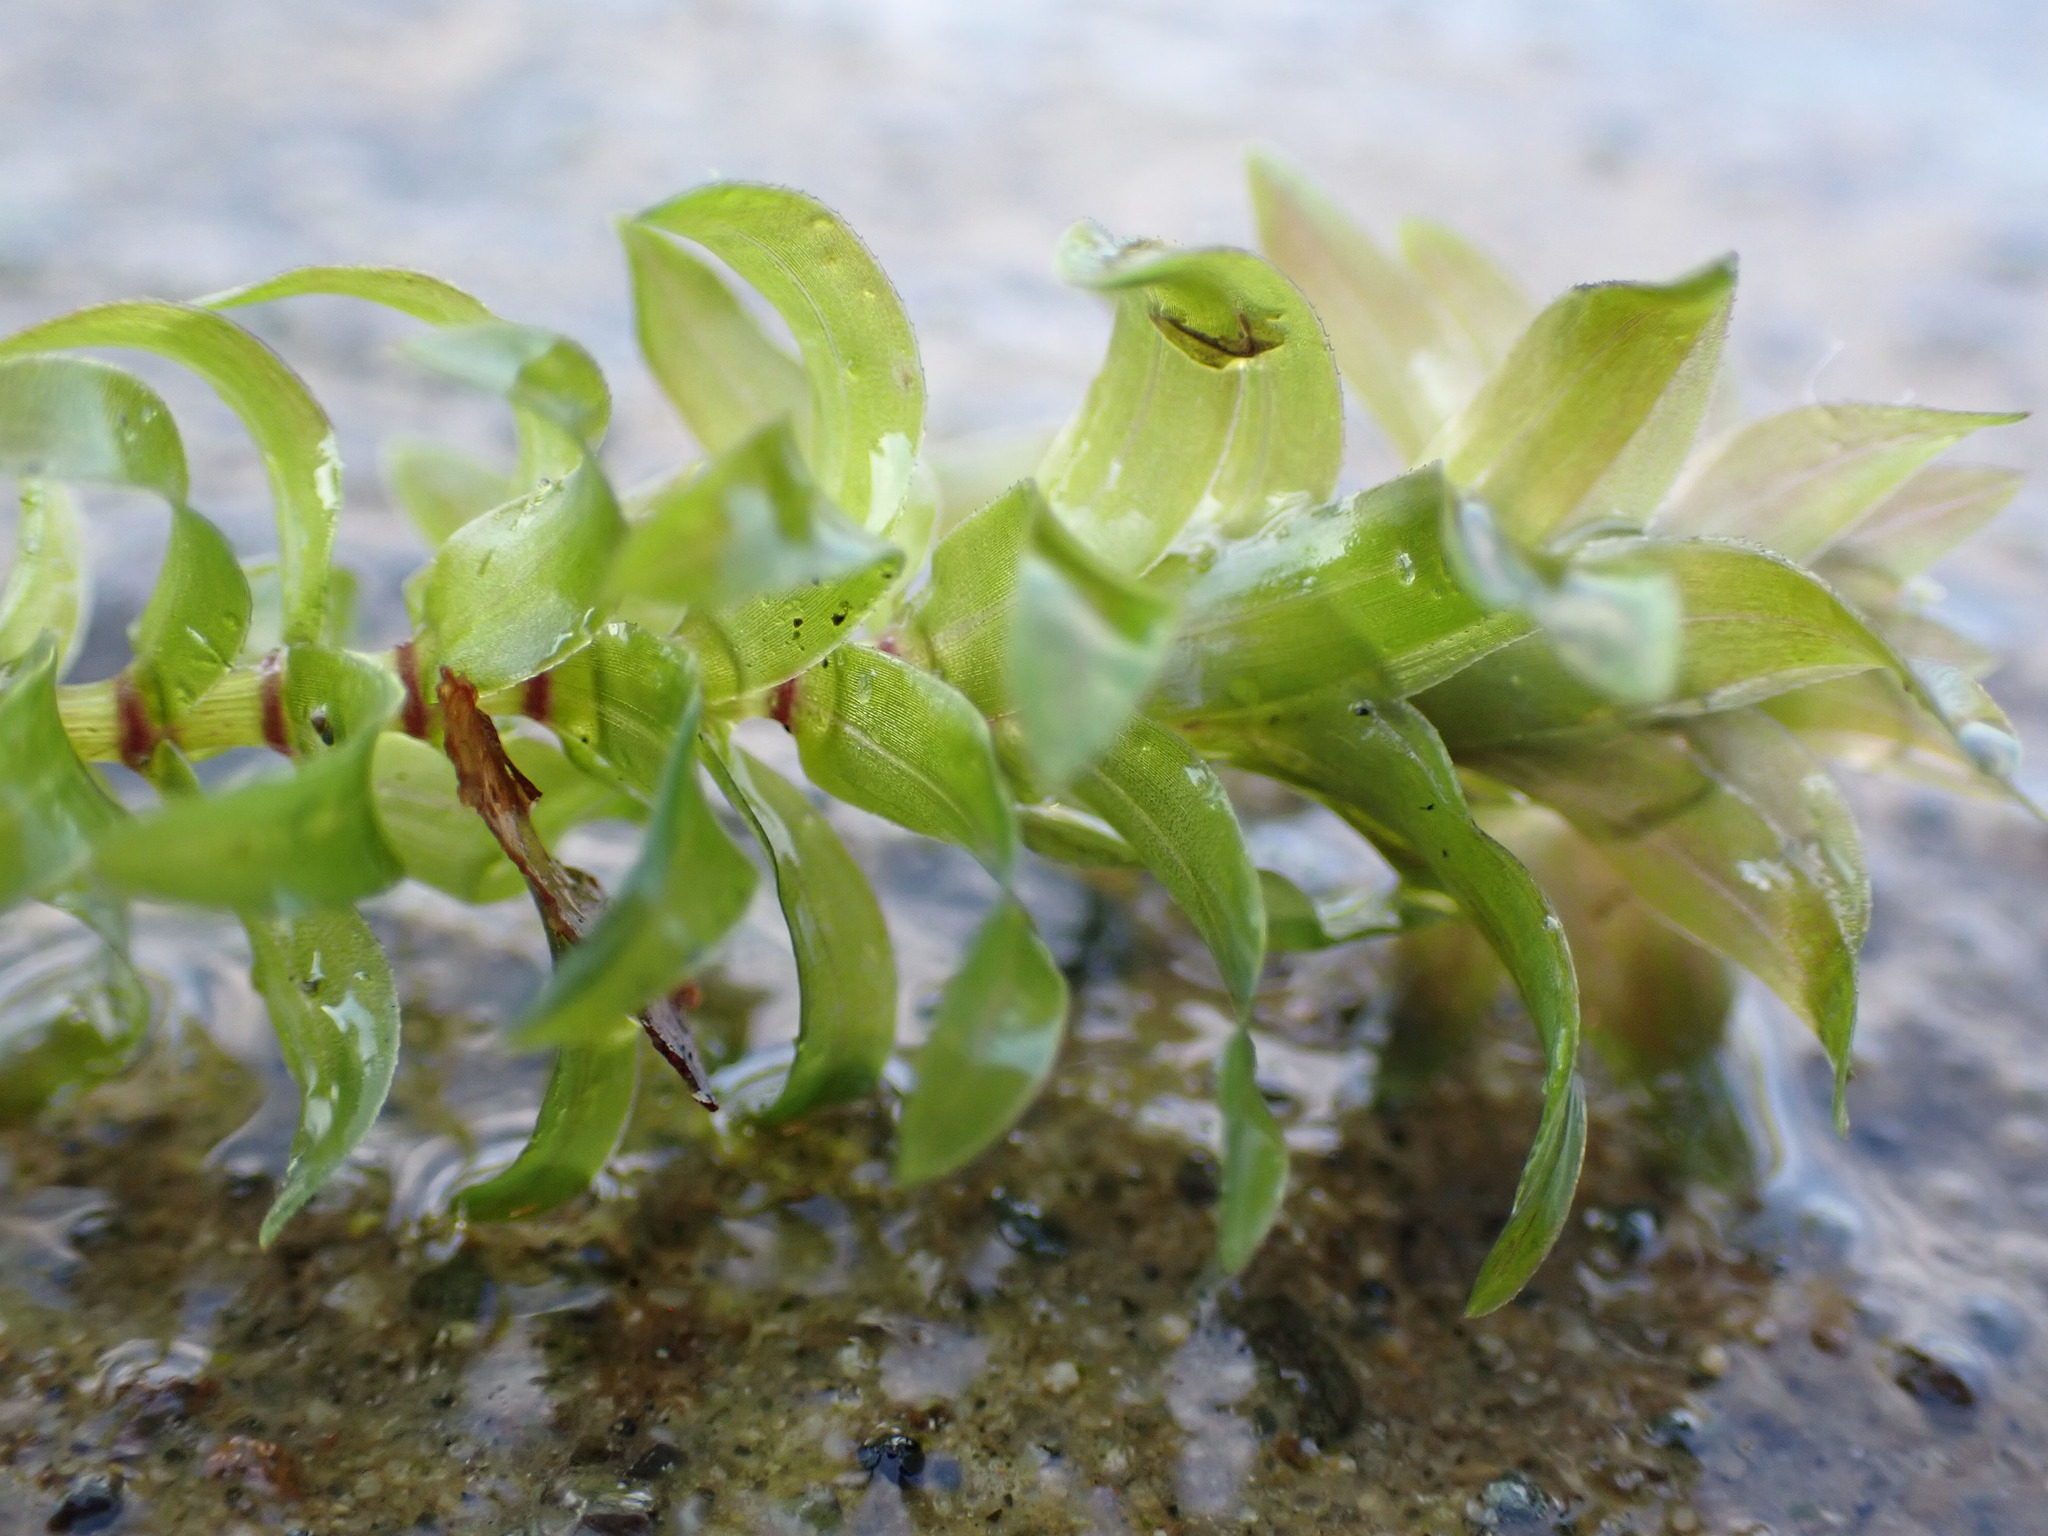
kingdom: Plantae
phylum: Tracheophyta
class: Liliopsida
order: Alismatales
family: Hydrocharitaceae
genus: Elodea
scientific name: Elodea canadensis
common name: Canadian waterweed
